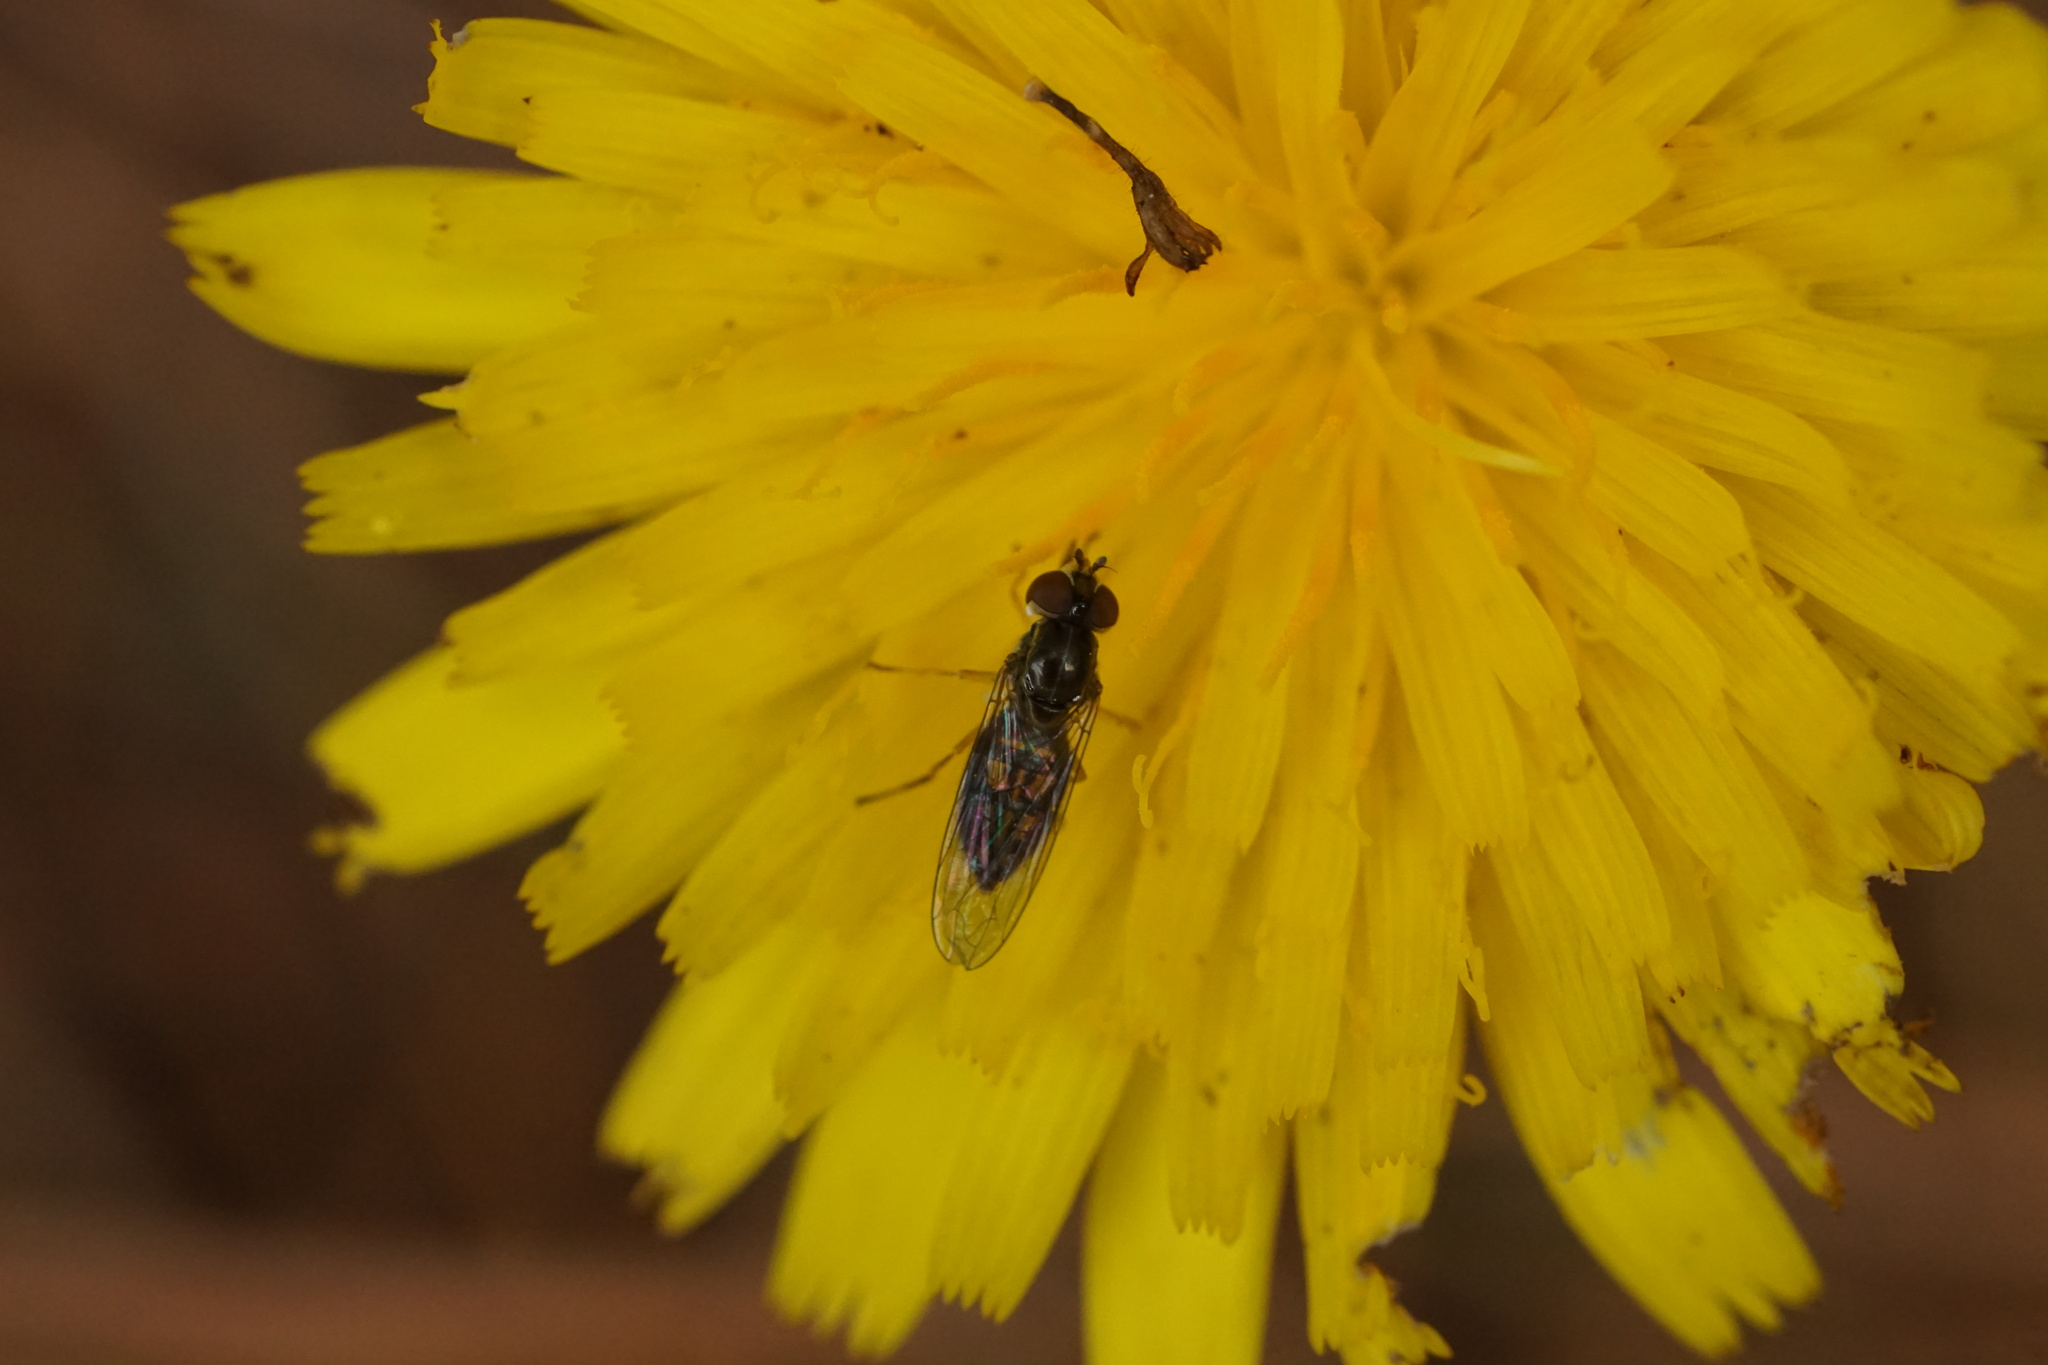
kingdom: Animalia
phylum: Arthropoda
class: Insecta
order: Diptera
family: Syrphidae
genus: Toxomerus
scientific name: Toxomerus marginatus
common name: Syrphid fly
